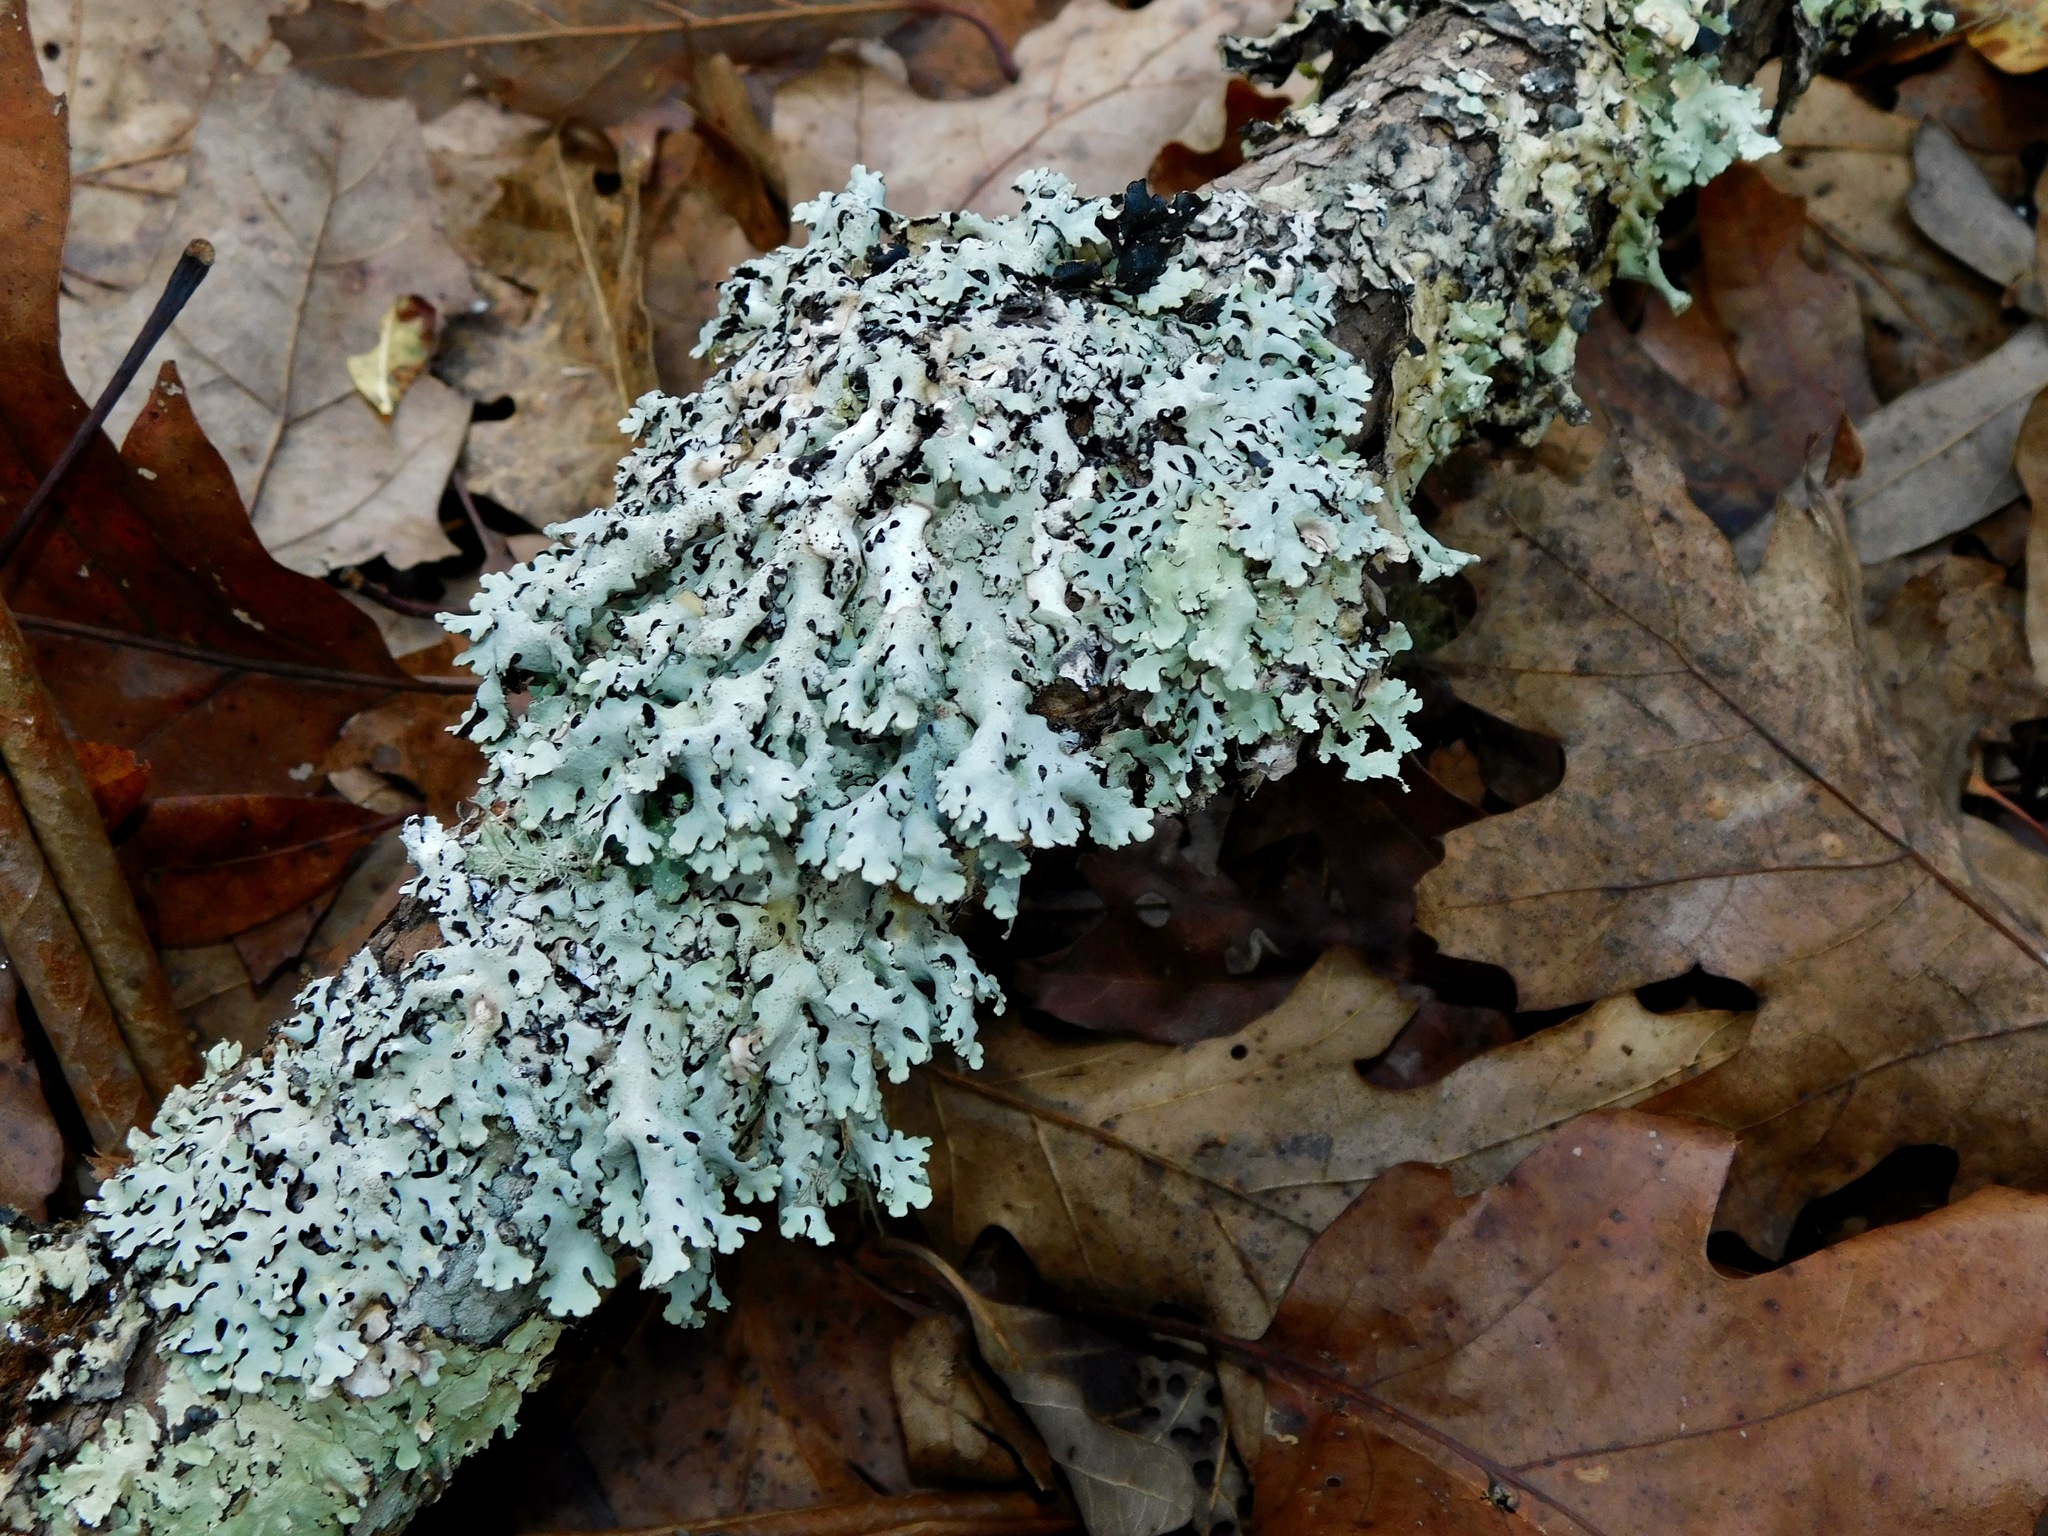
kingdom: Fungi
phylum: Ascomycota
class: Lecanoromycetes
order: Lecanorales
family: Parmeliaceae
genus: Hypotrachyna
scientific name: Hypotrachyna osseoalba
